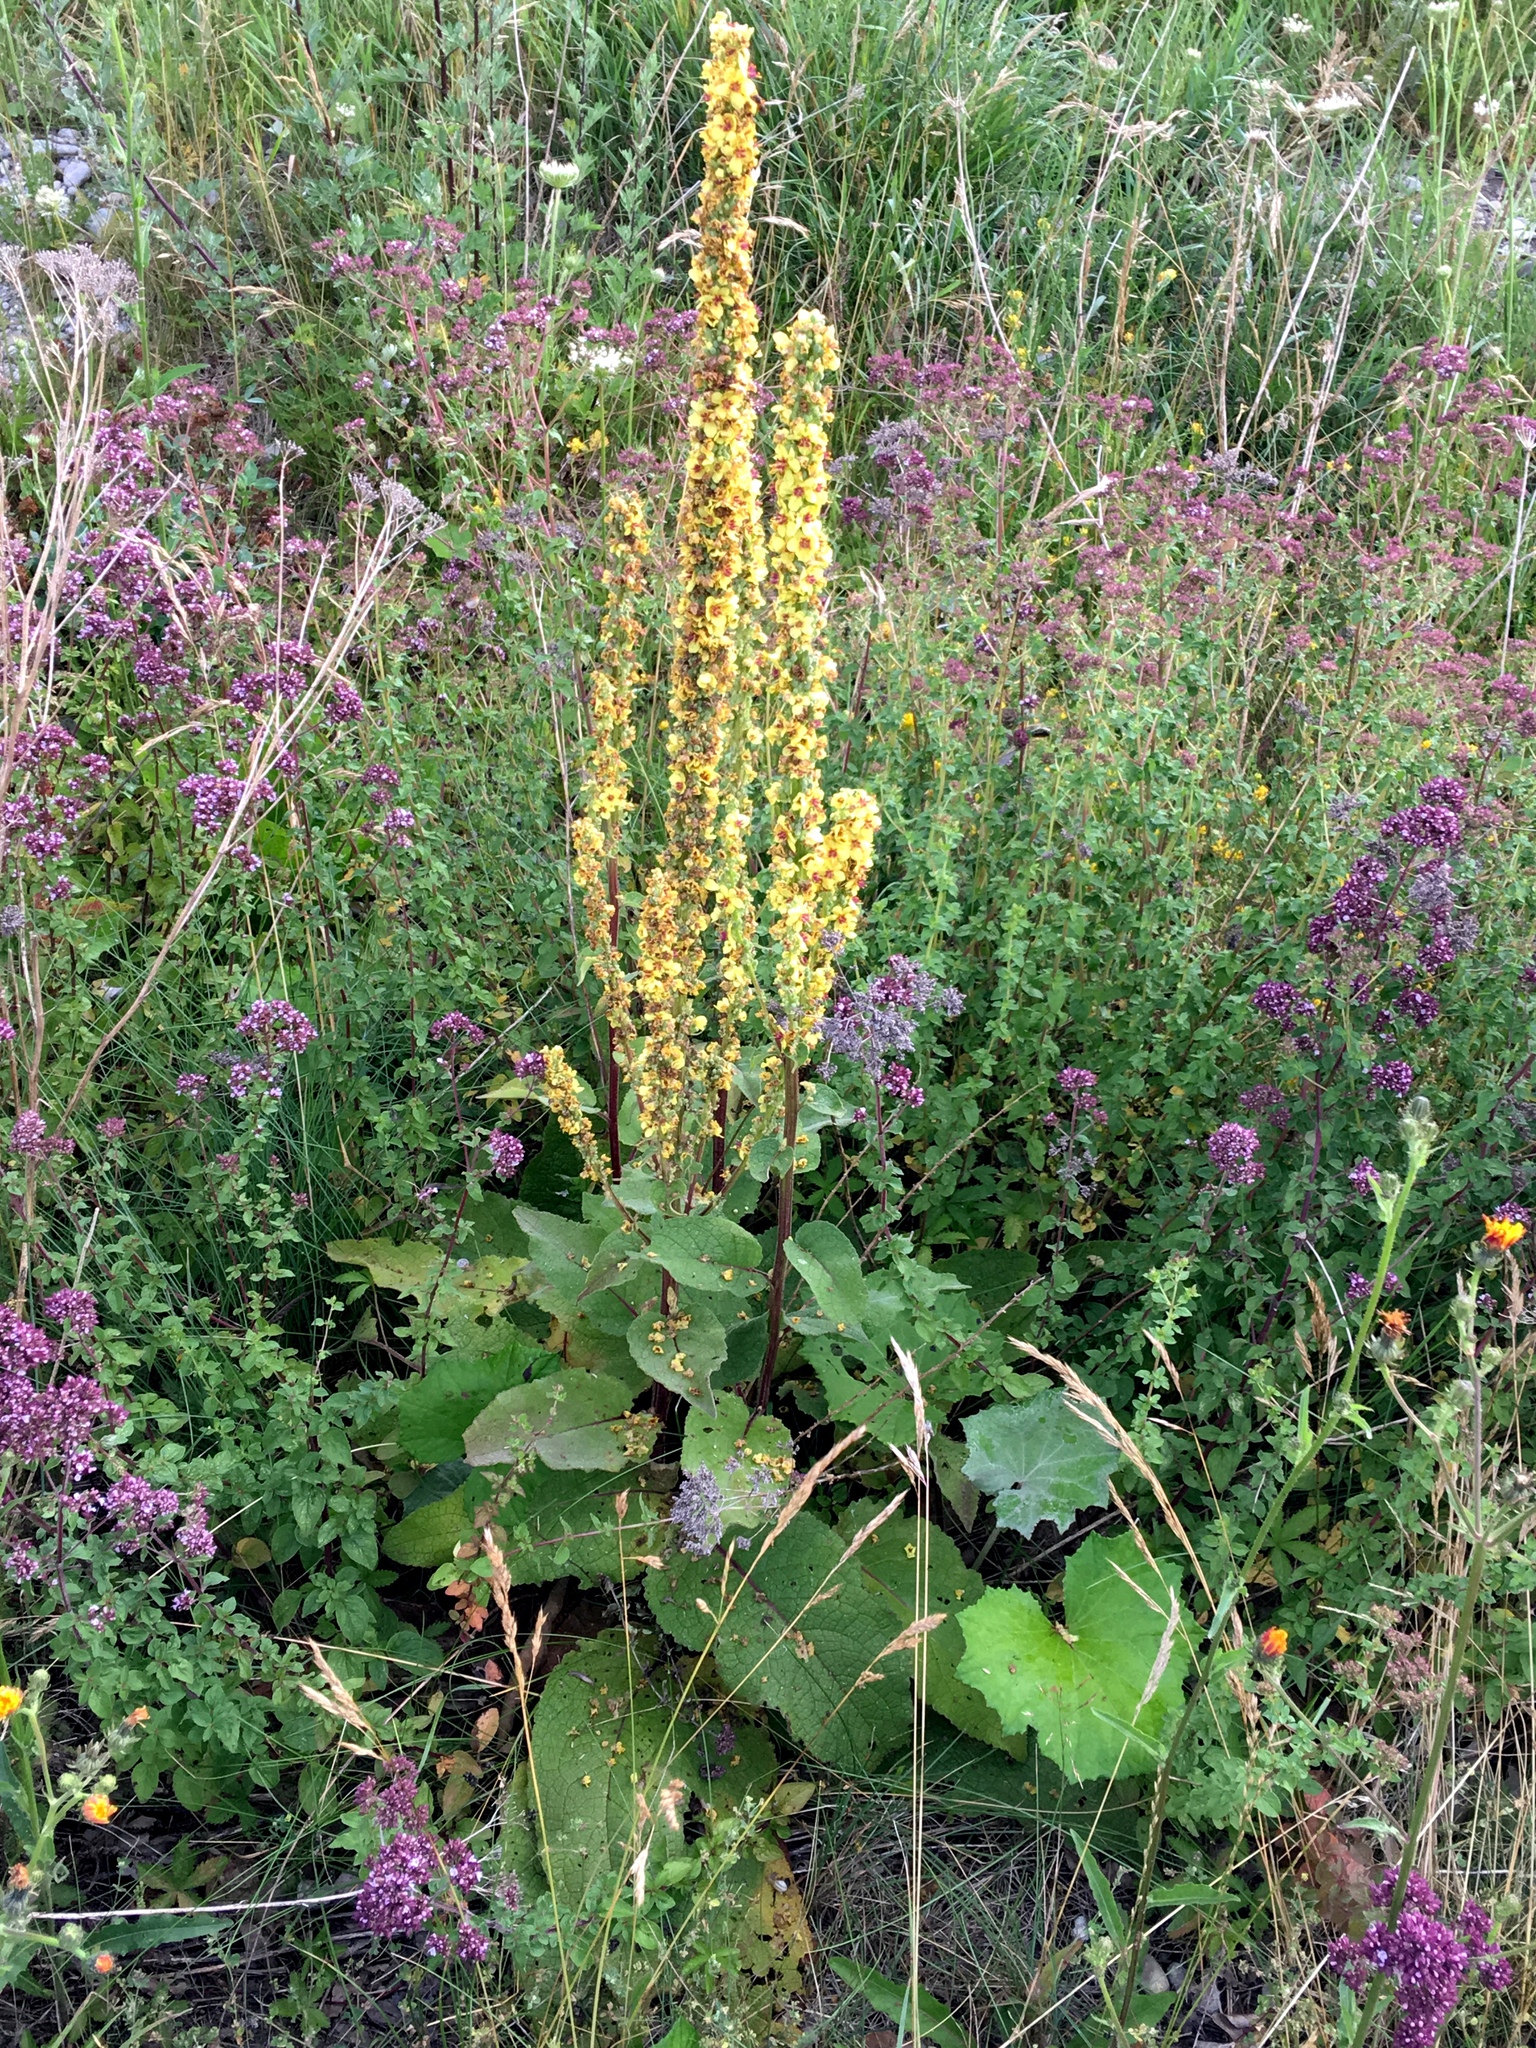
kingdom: Plantae
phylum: Tracheophyta
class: Magnoliopsida
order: Lamiales
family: Scrophulariaceae
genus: Verbascum
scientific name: Verbascum nigrum
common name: Dark mullein
